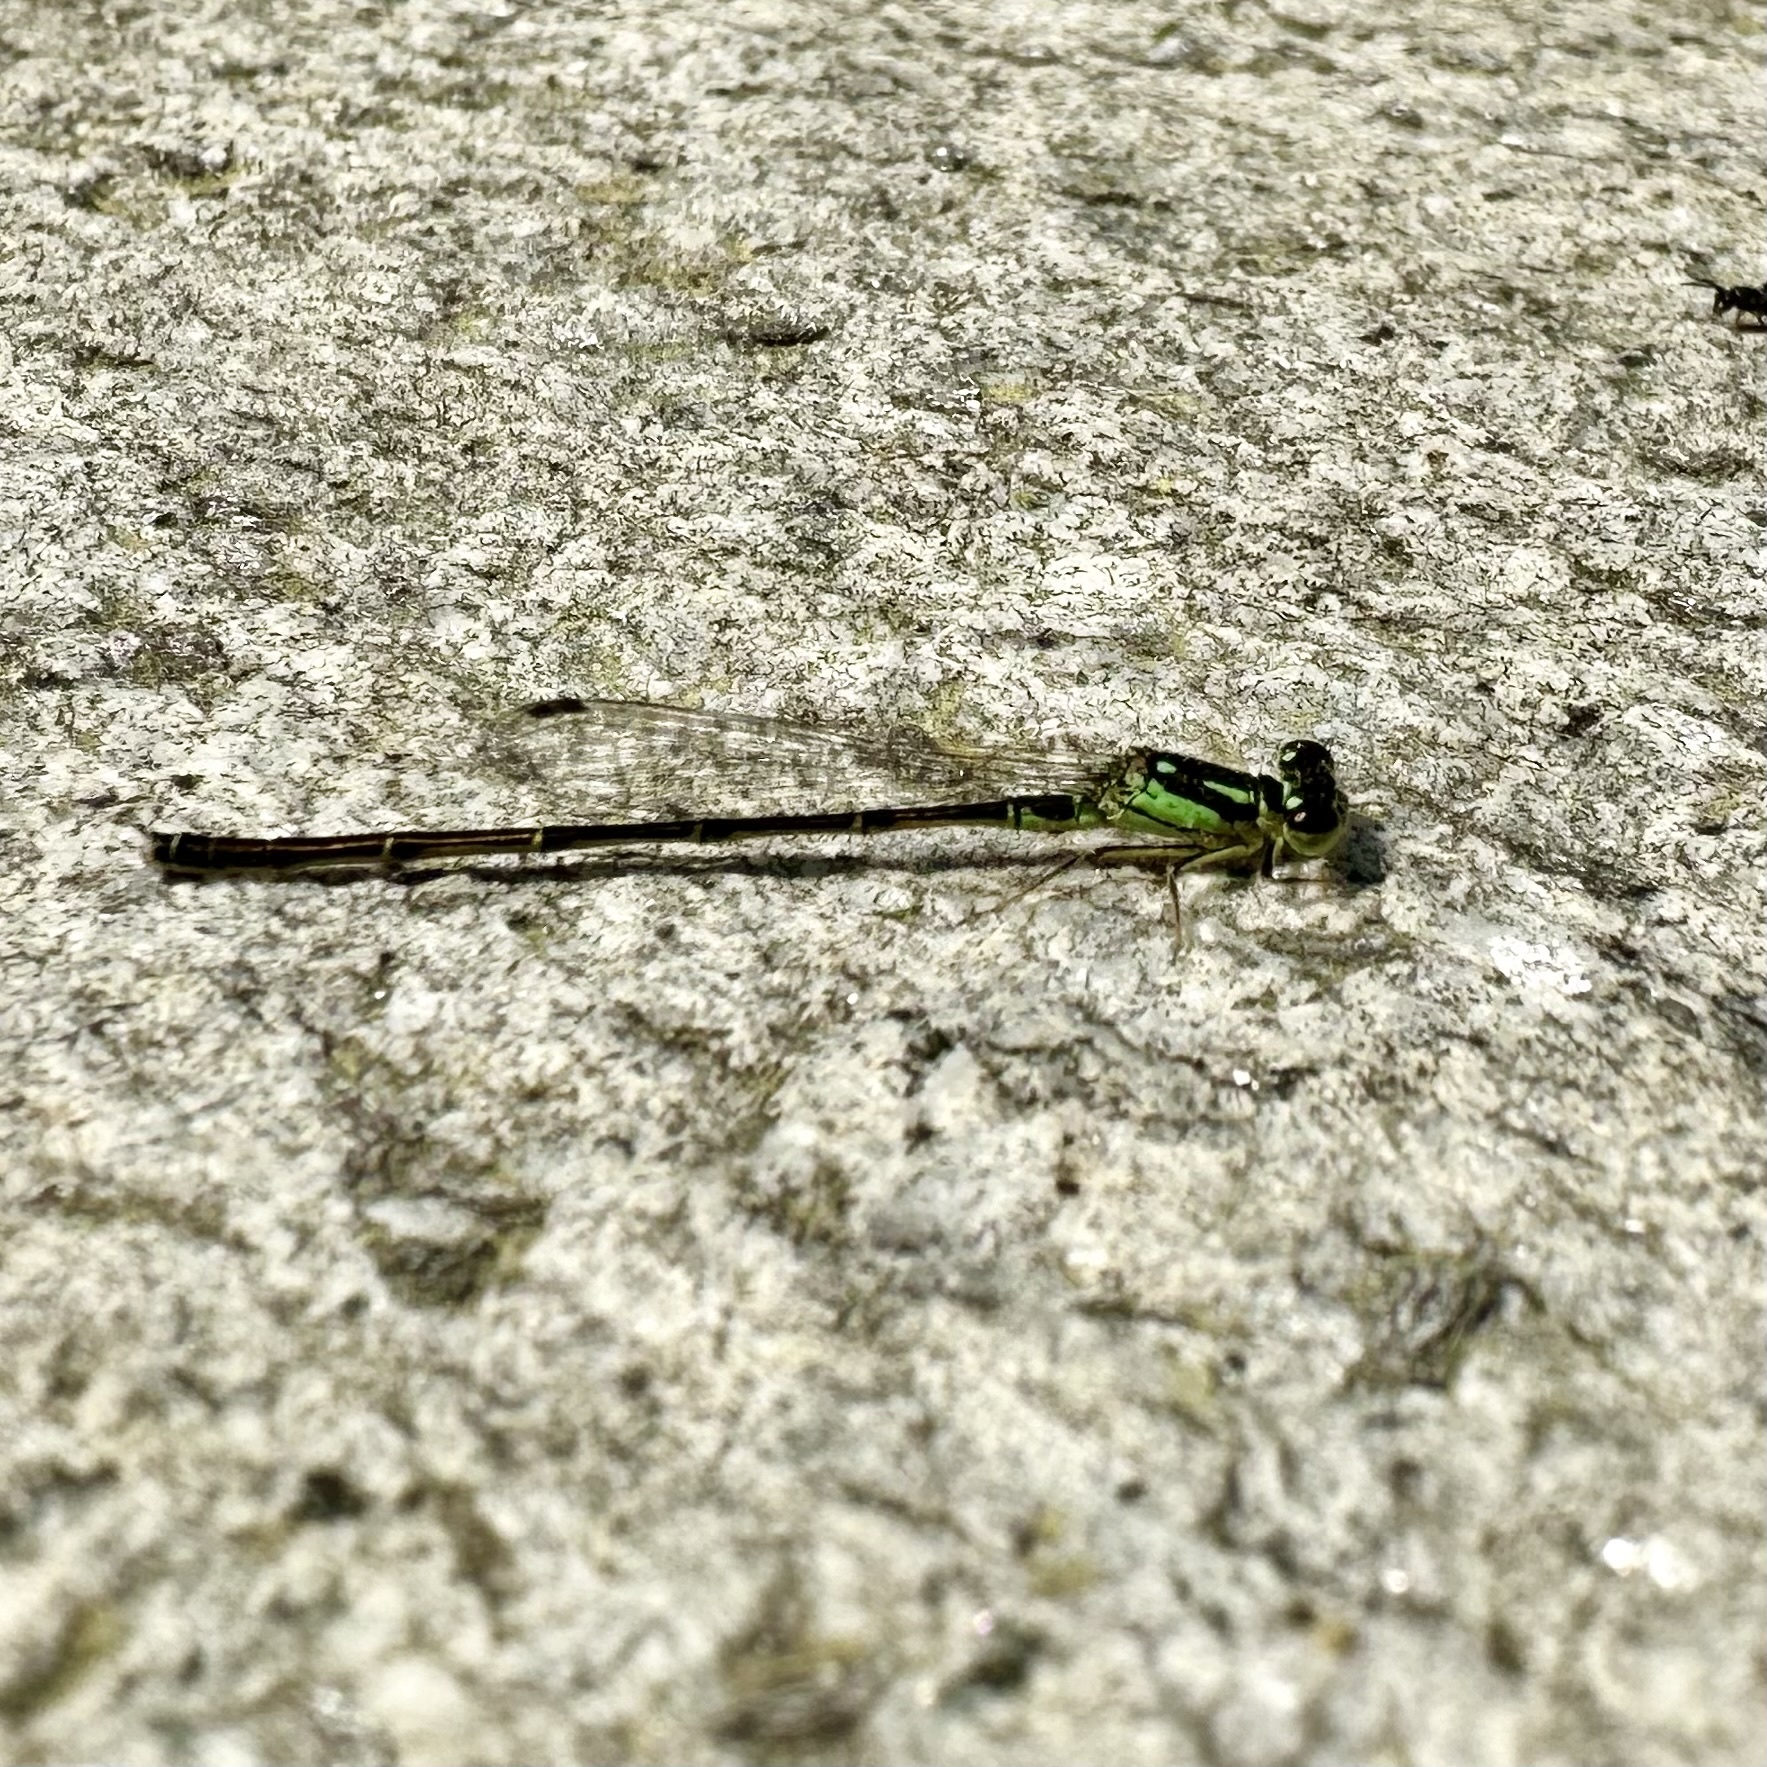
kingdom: Animalia
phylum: Arthropoda
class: Insecta
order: Odonata
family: Coenagrionidae
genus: Ischnura
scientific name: Ischnura posita
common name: Fragile forktail
